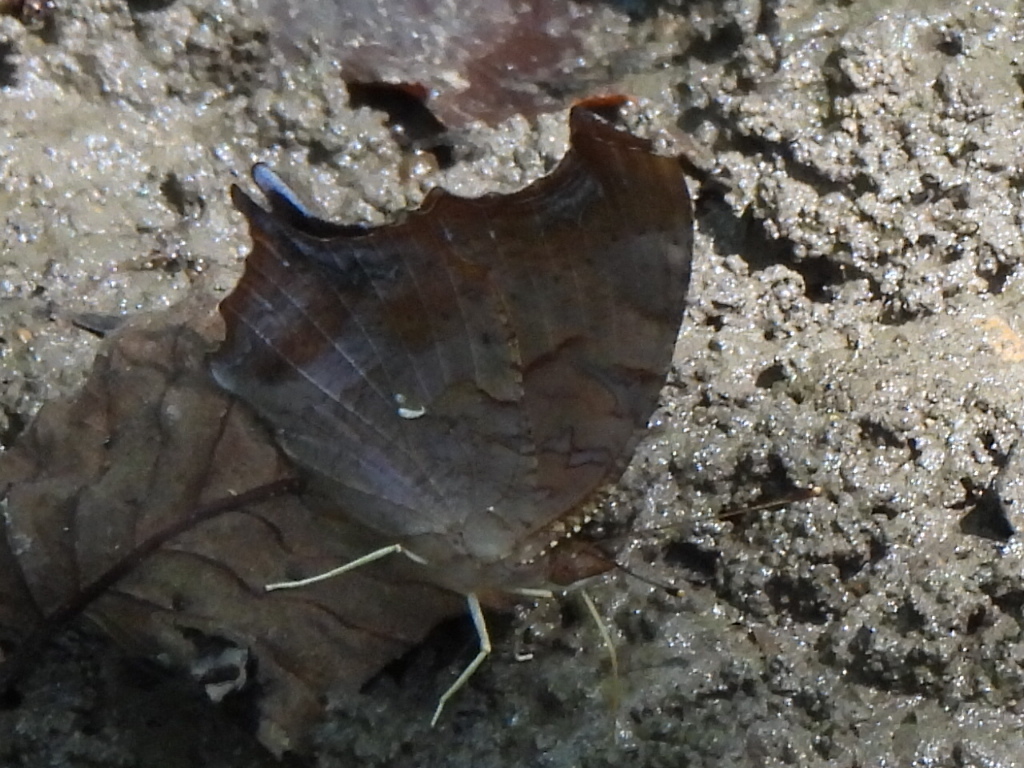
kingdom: Animalia
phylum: Arthropoda
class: Insecta
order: Lepidoptera
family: Nymphalidae
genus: Polygonia
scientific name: Polygonia interrogationis
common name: Question mark
